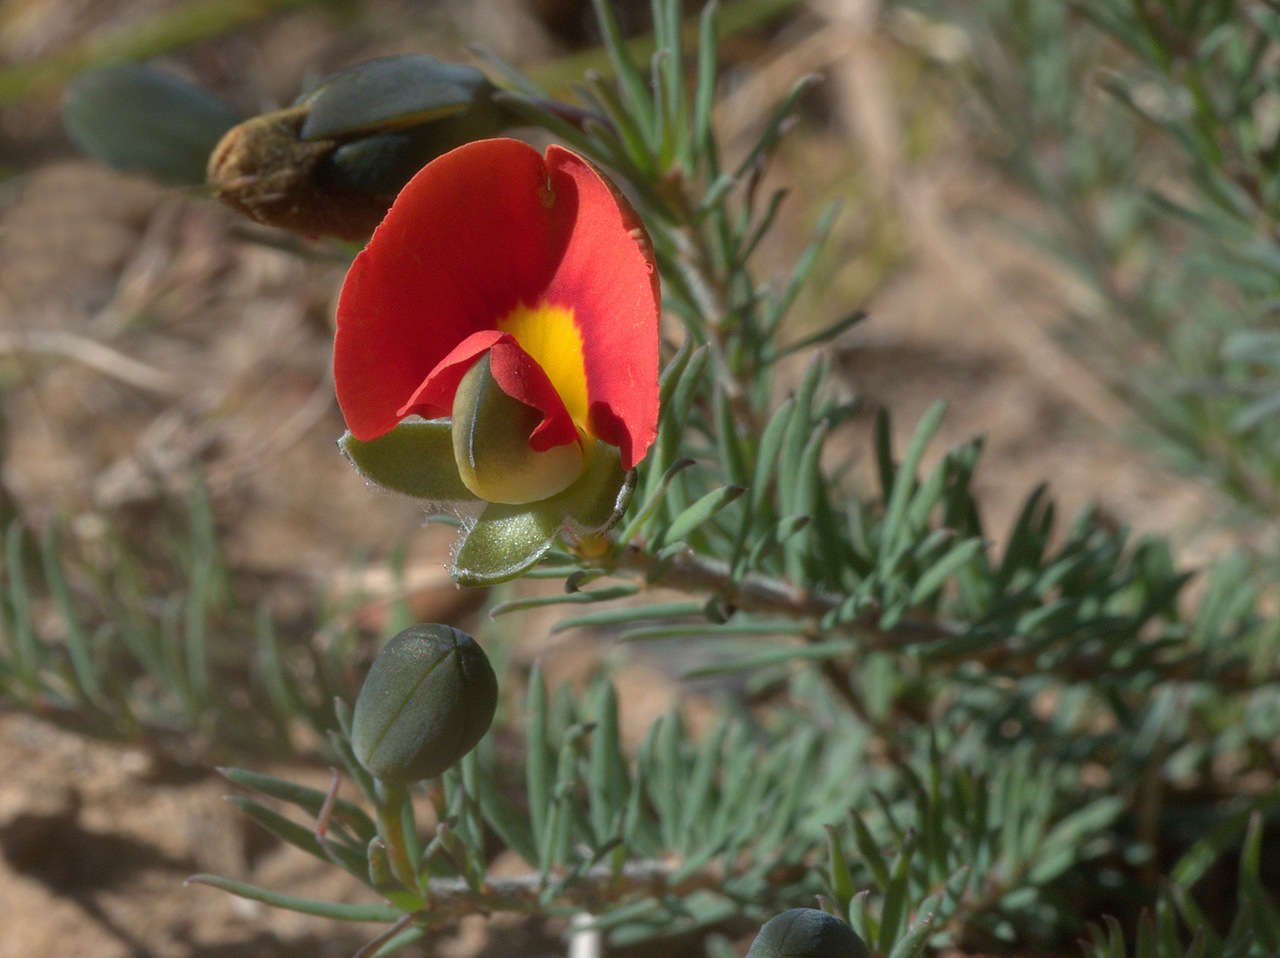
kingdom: Plantae
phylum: Tracheophyta
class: Magnoliopsida
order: Fabales
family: Fabaceae
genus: Gompholobium
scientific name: Gompholobium ecostatum
